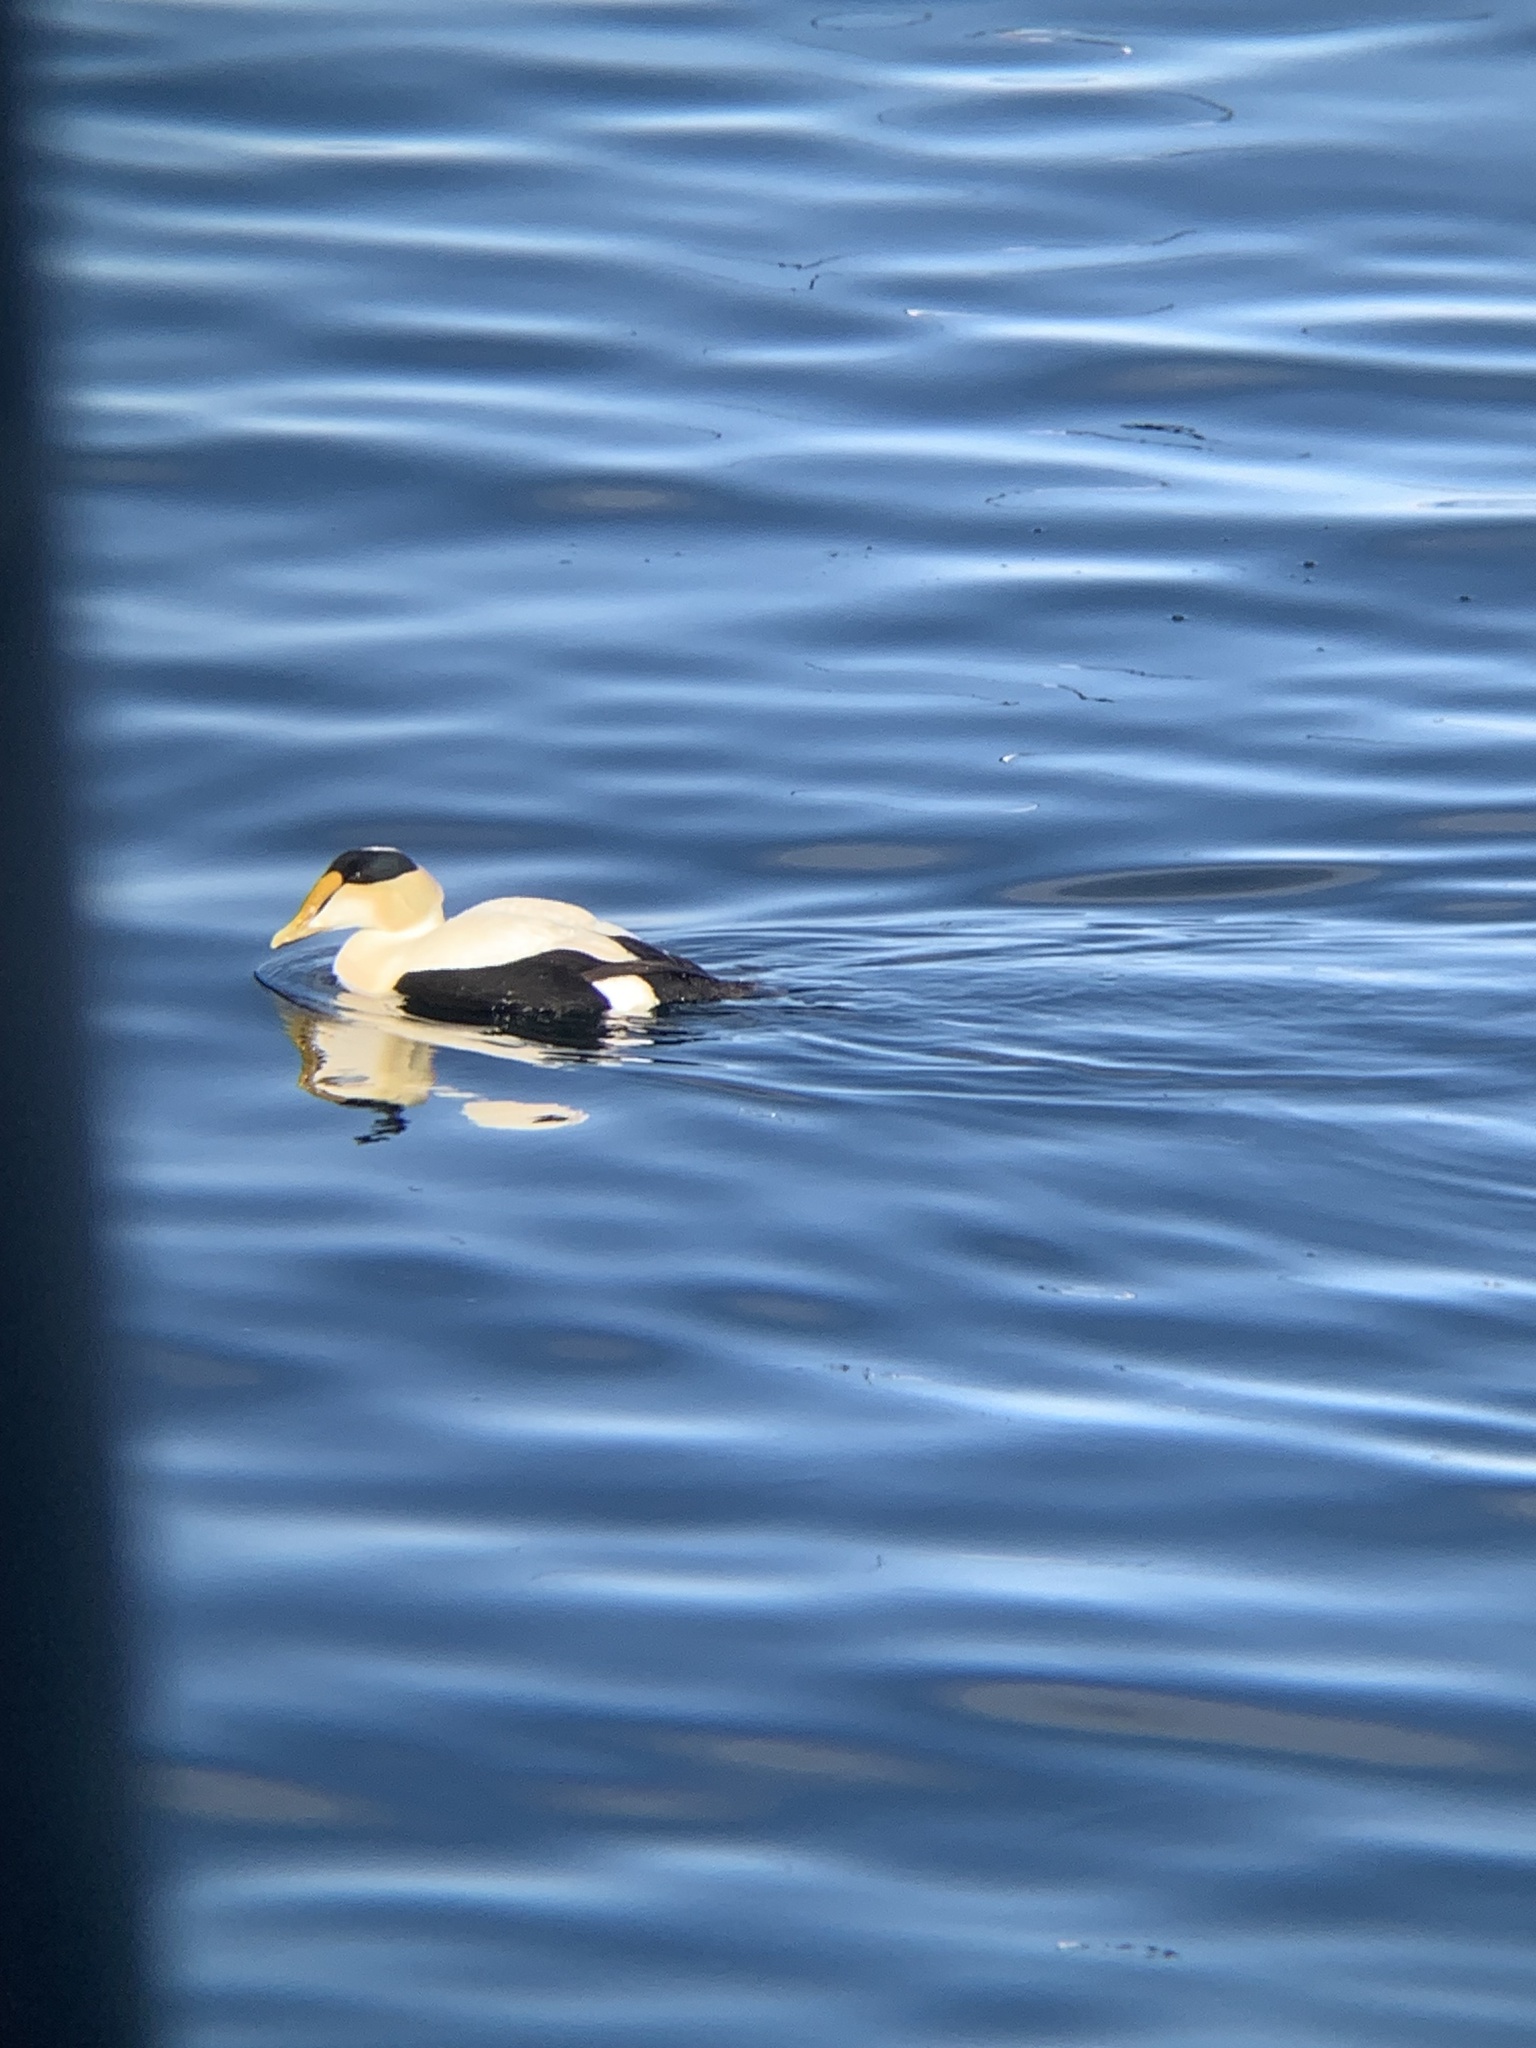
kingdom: Animalia
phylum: Chordata
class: Aves
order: Anseriformes
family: Anatidae
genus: Somateria
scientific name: Somateria mollissima
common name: Common eider
